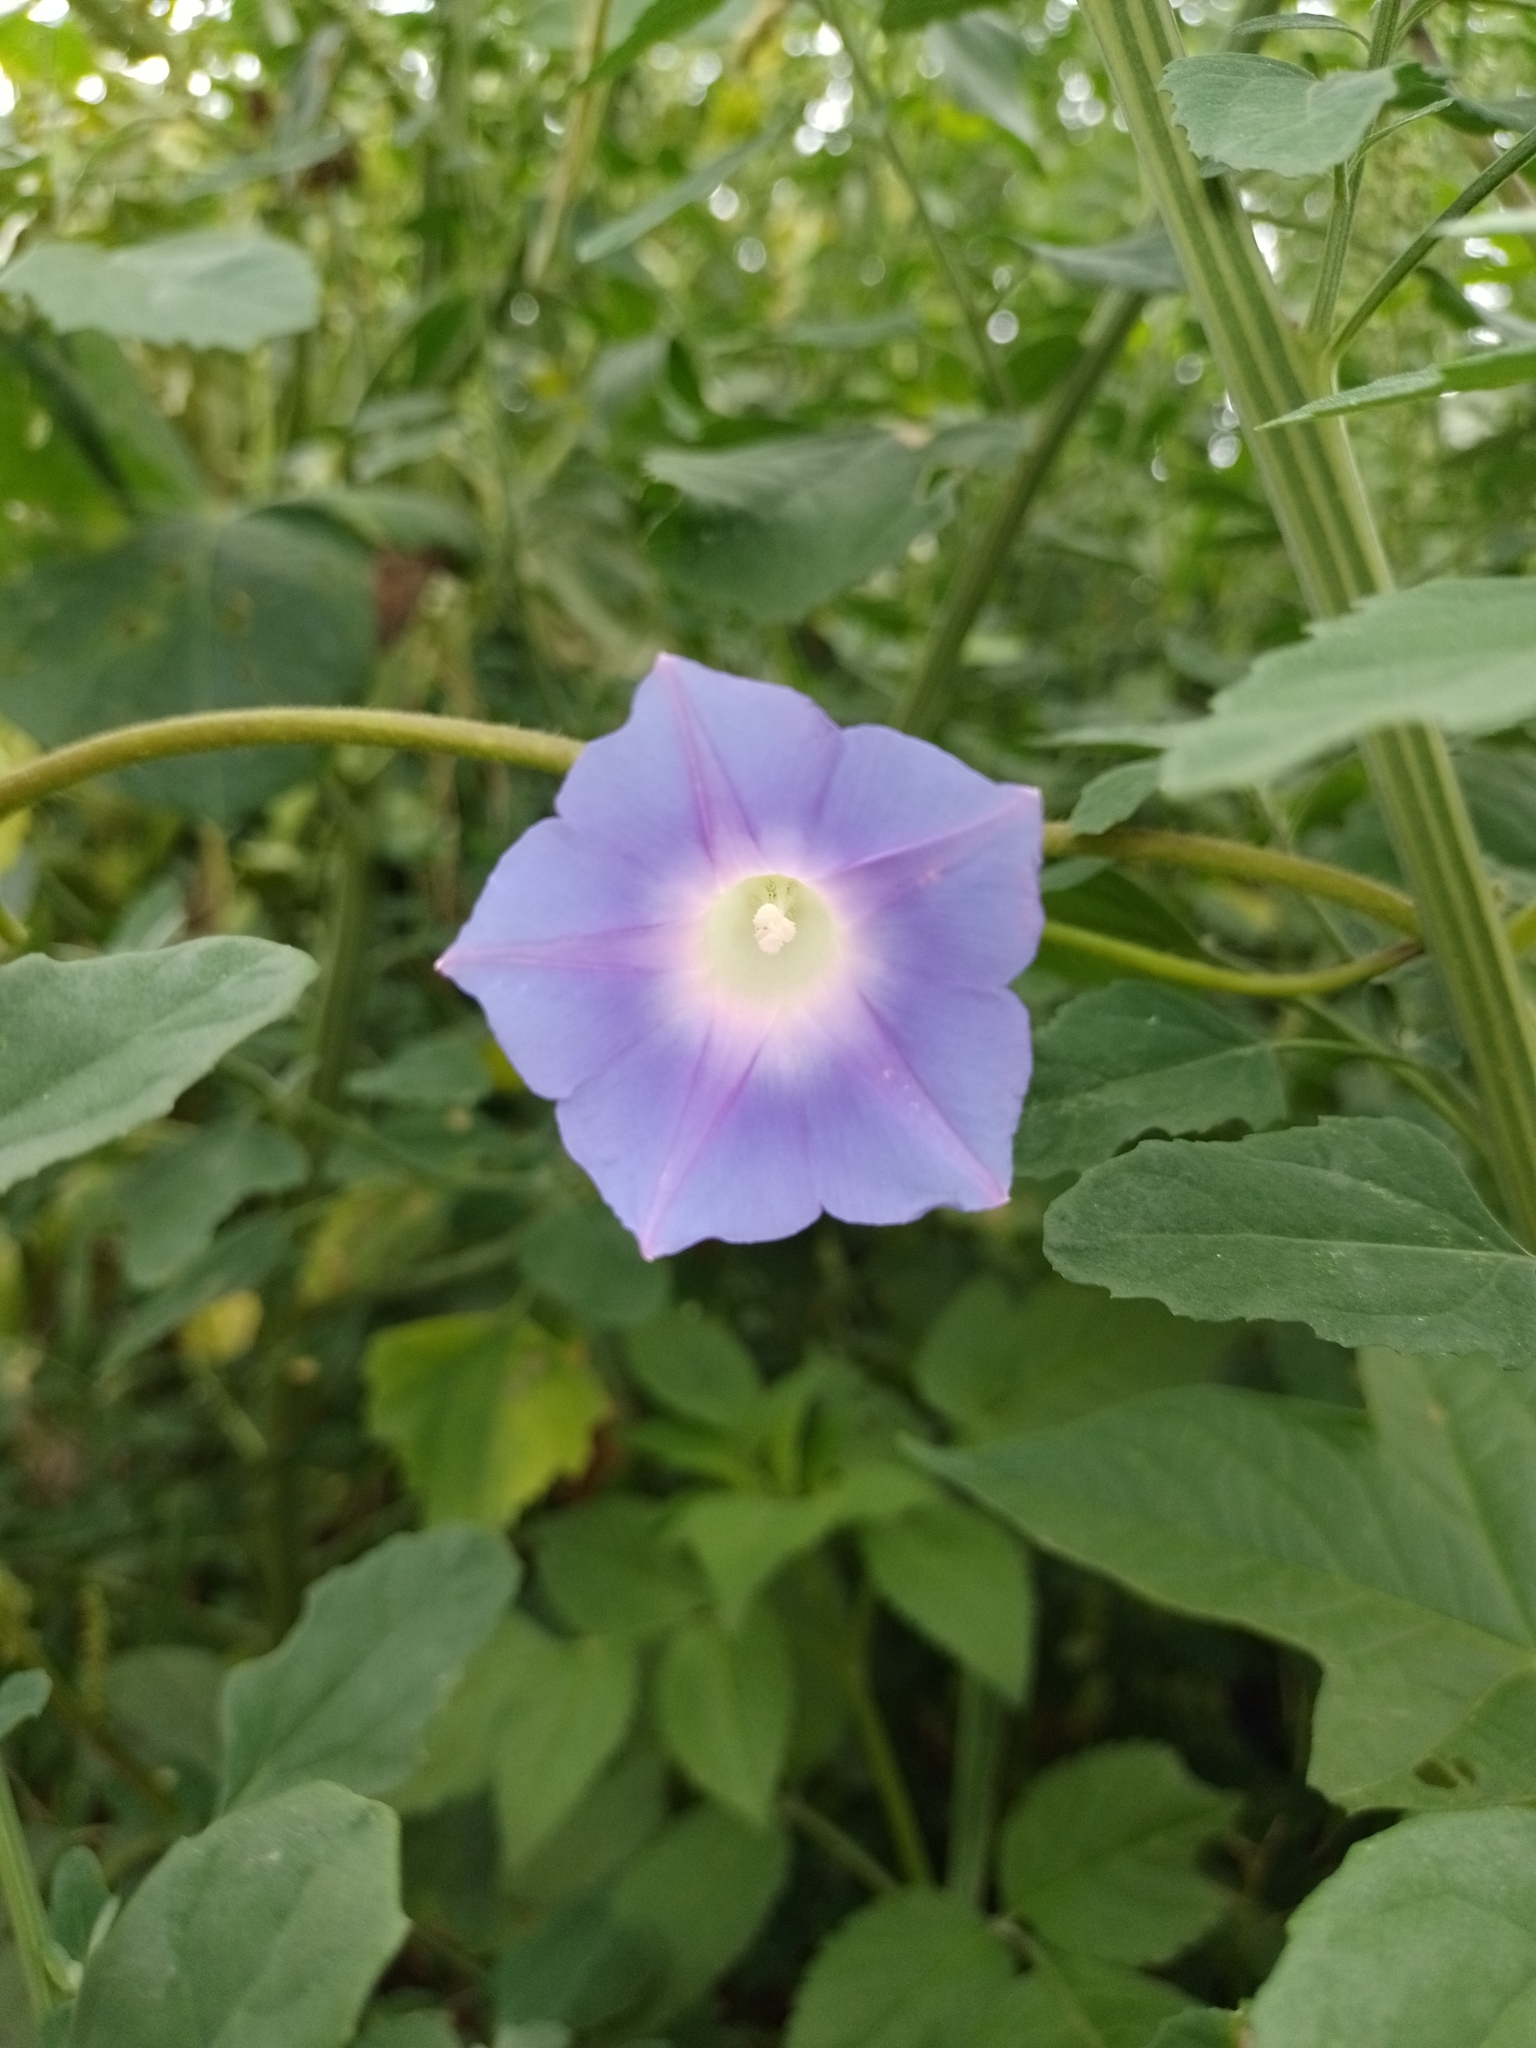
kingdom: Plantae
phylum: Tracheophyta
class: Magnoliopsida
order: Solanales
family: Convolvulaceae
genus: Ipomoea
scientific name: Ipomoea nil
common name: Japanese morning-glory
